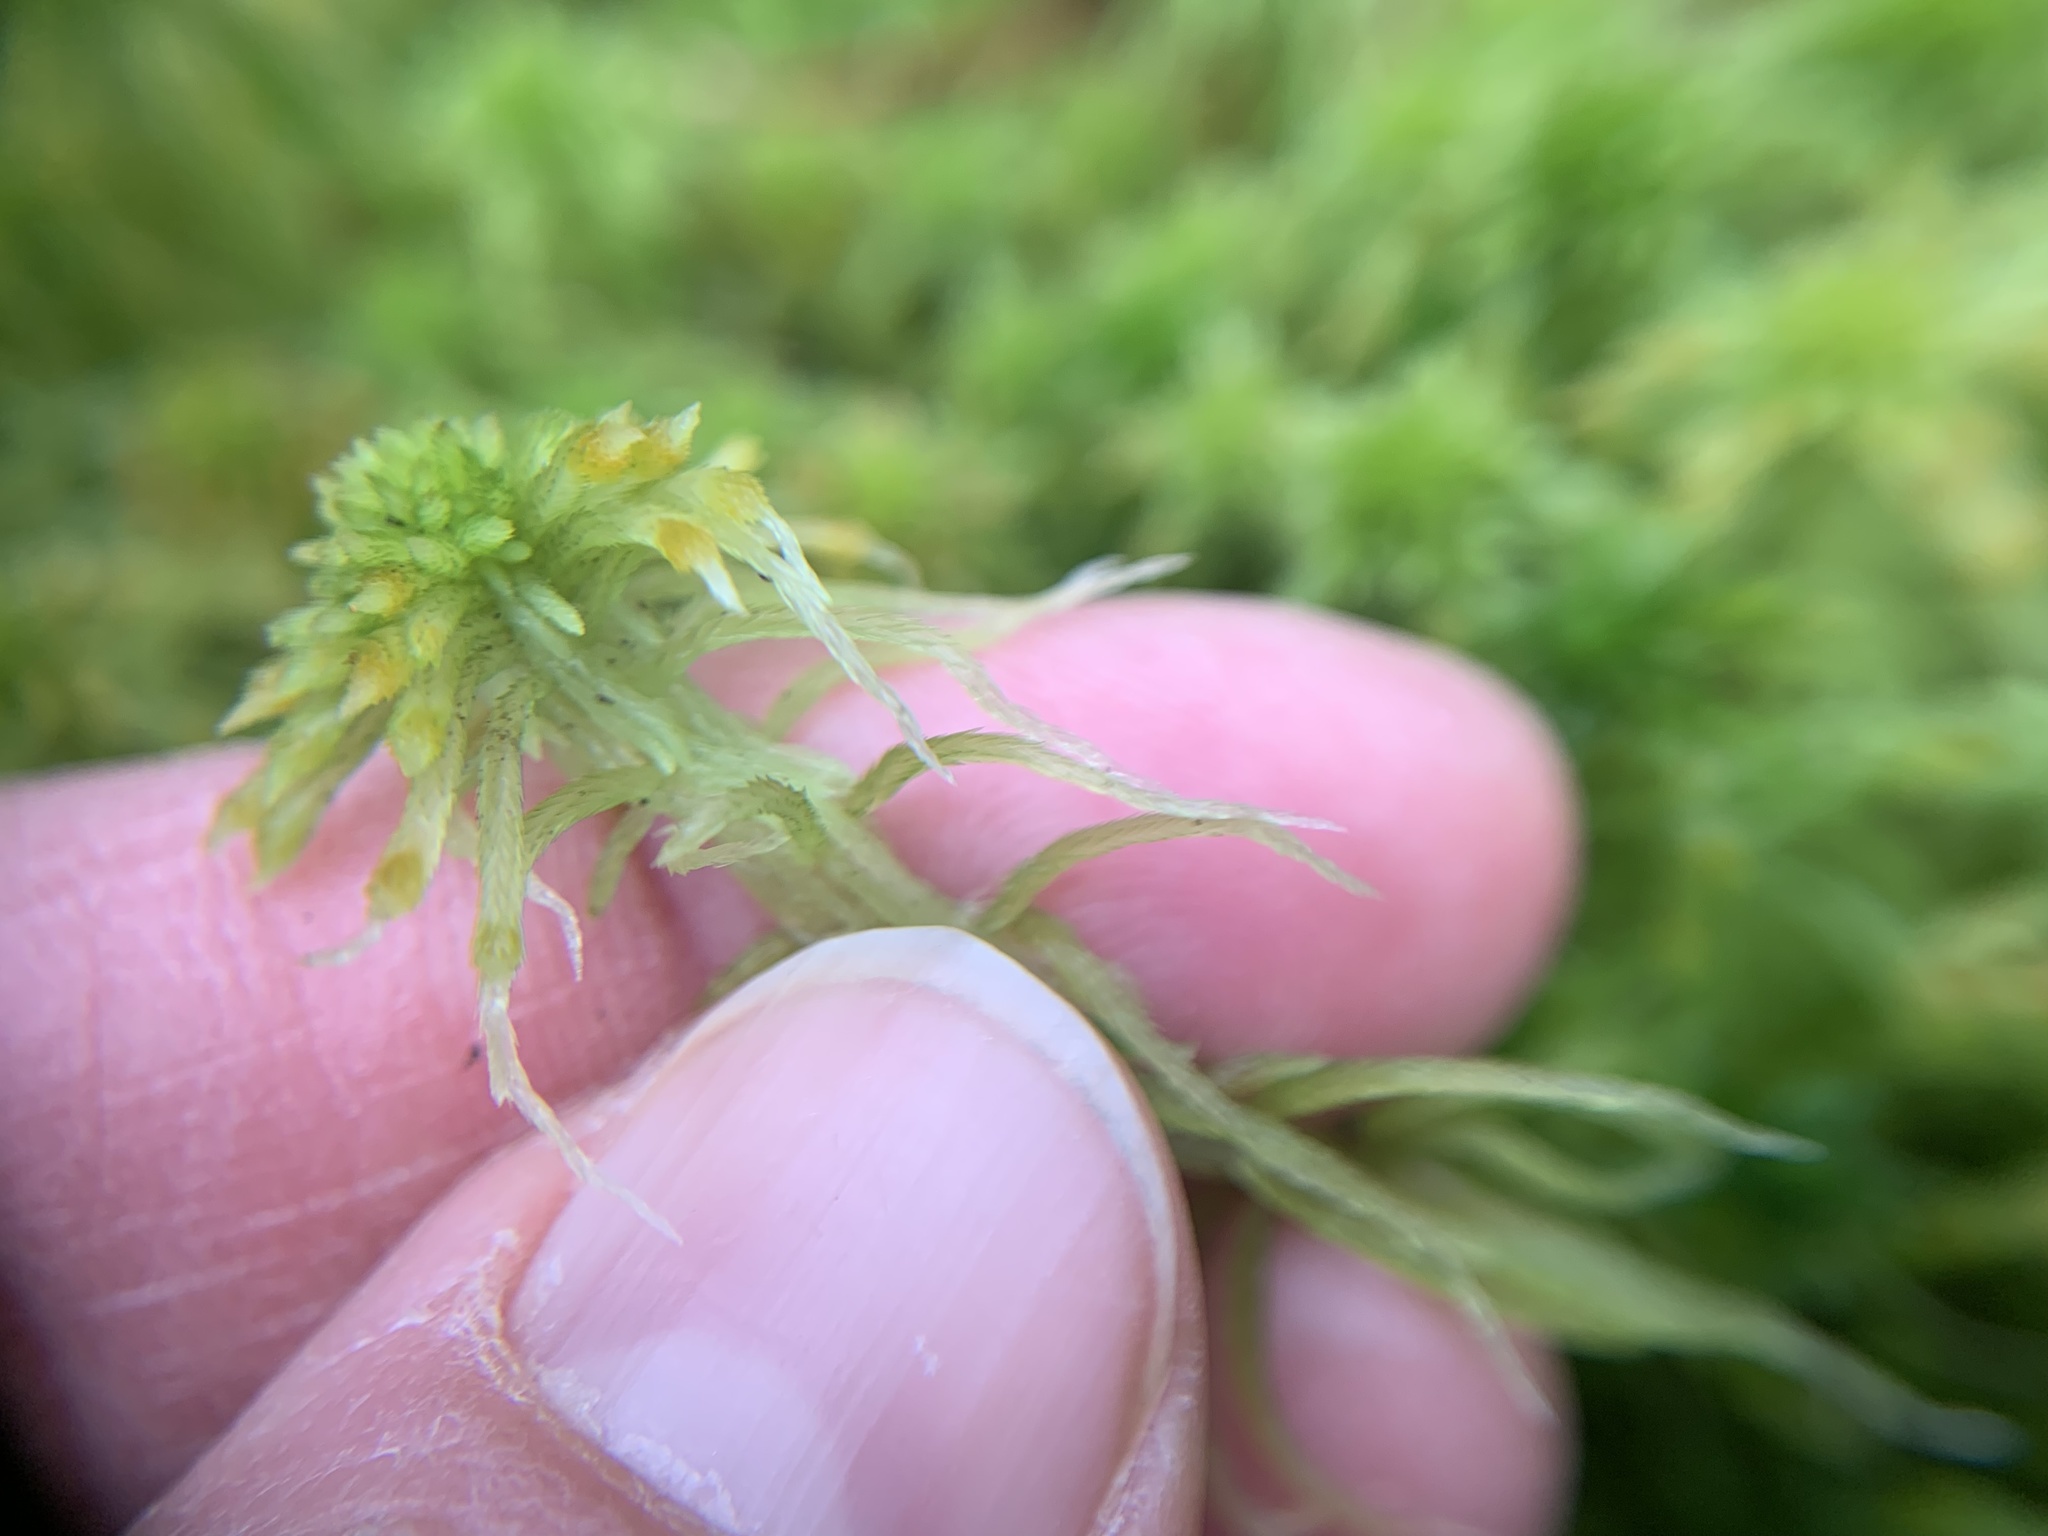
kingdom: Plantae
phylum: Bryophyta
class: Sphagnopsida
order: Sphagnales
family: Sphagnaceae
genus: Sphagnum
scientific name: Sphagnum fallax
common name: Flat-top peat moss
